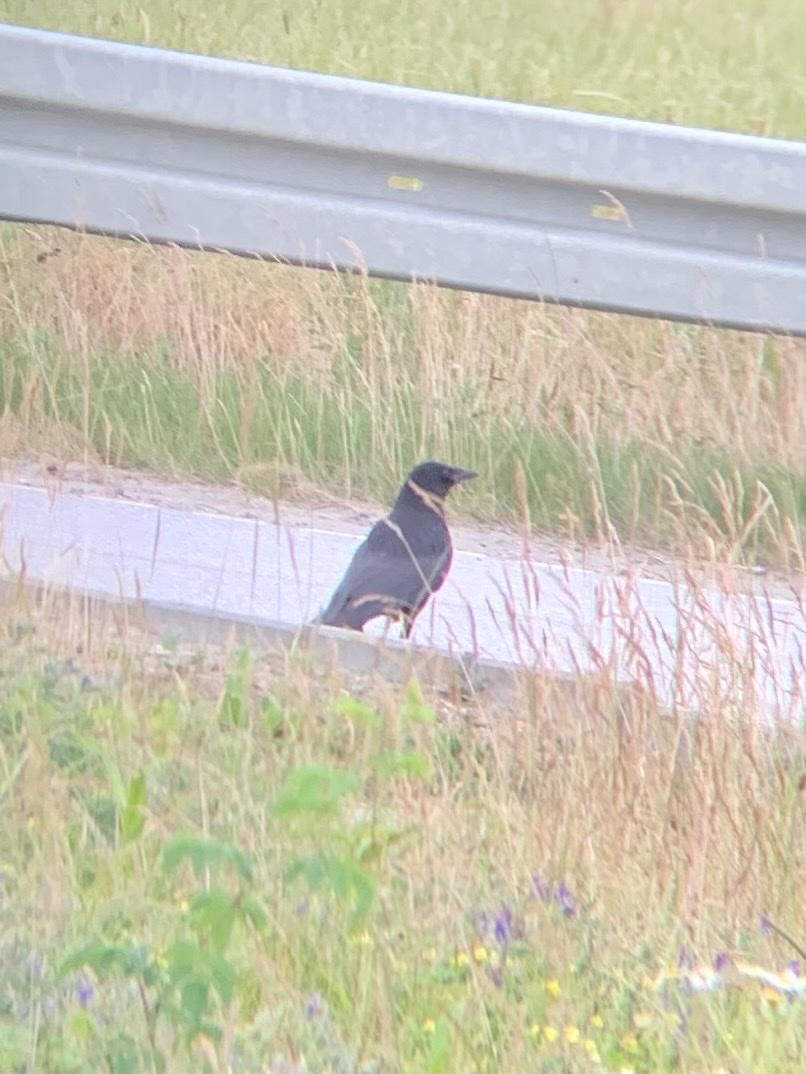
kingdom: Animalia
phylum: Chordata
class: Aves
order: Passeriformes
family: Corvidae
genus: Corvus
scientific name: Corvus corone
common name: Carrion crow
